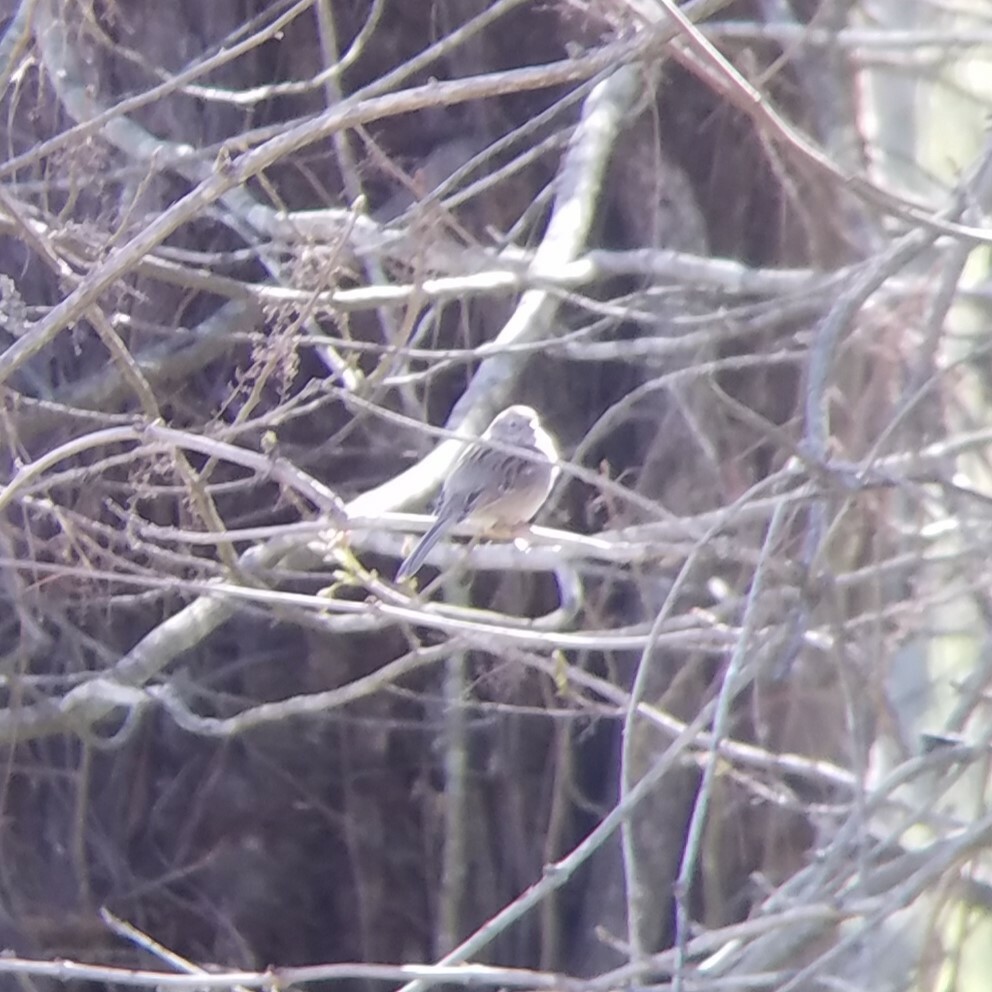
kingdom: Animalia
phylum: Chordata
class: Aves
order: Passeriformes
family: Passerellidae
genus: Spizella
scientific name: Spizella pusilla
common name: Field sparrow
